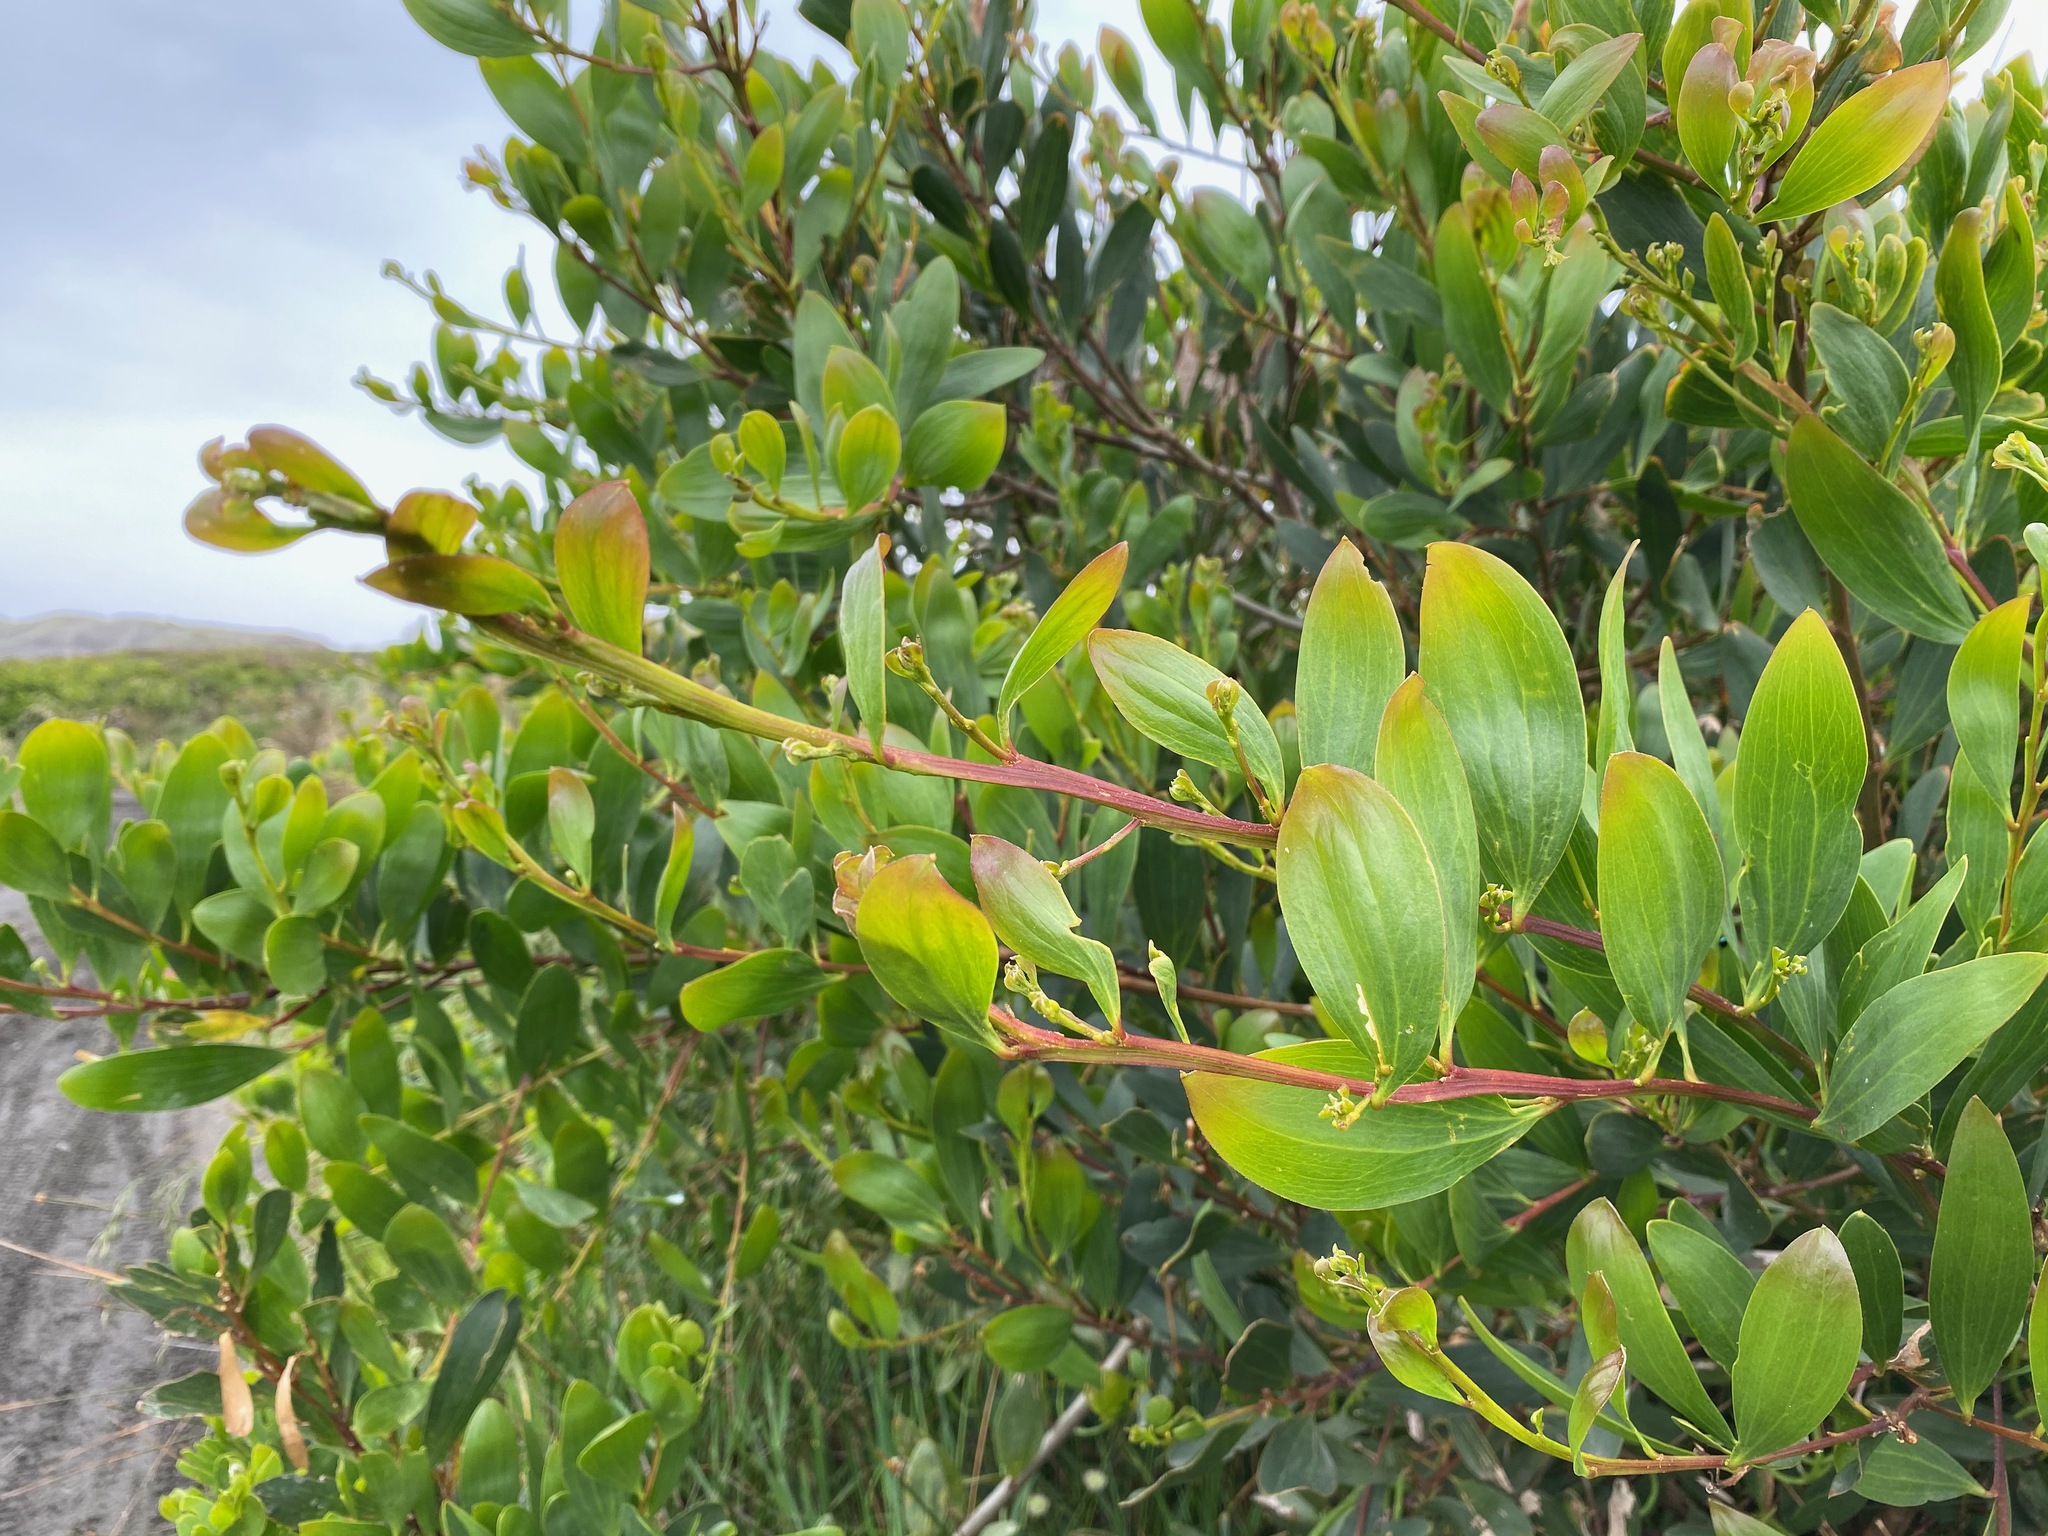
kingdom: Plantae
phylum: Tracheophyta
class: Magnoliopsida
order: Fabales
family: Fabaceae
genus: Acacia
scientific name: Acacia longifolia
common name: Sydney golden wattle
